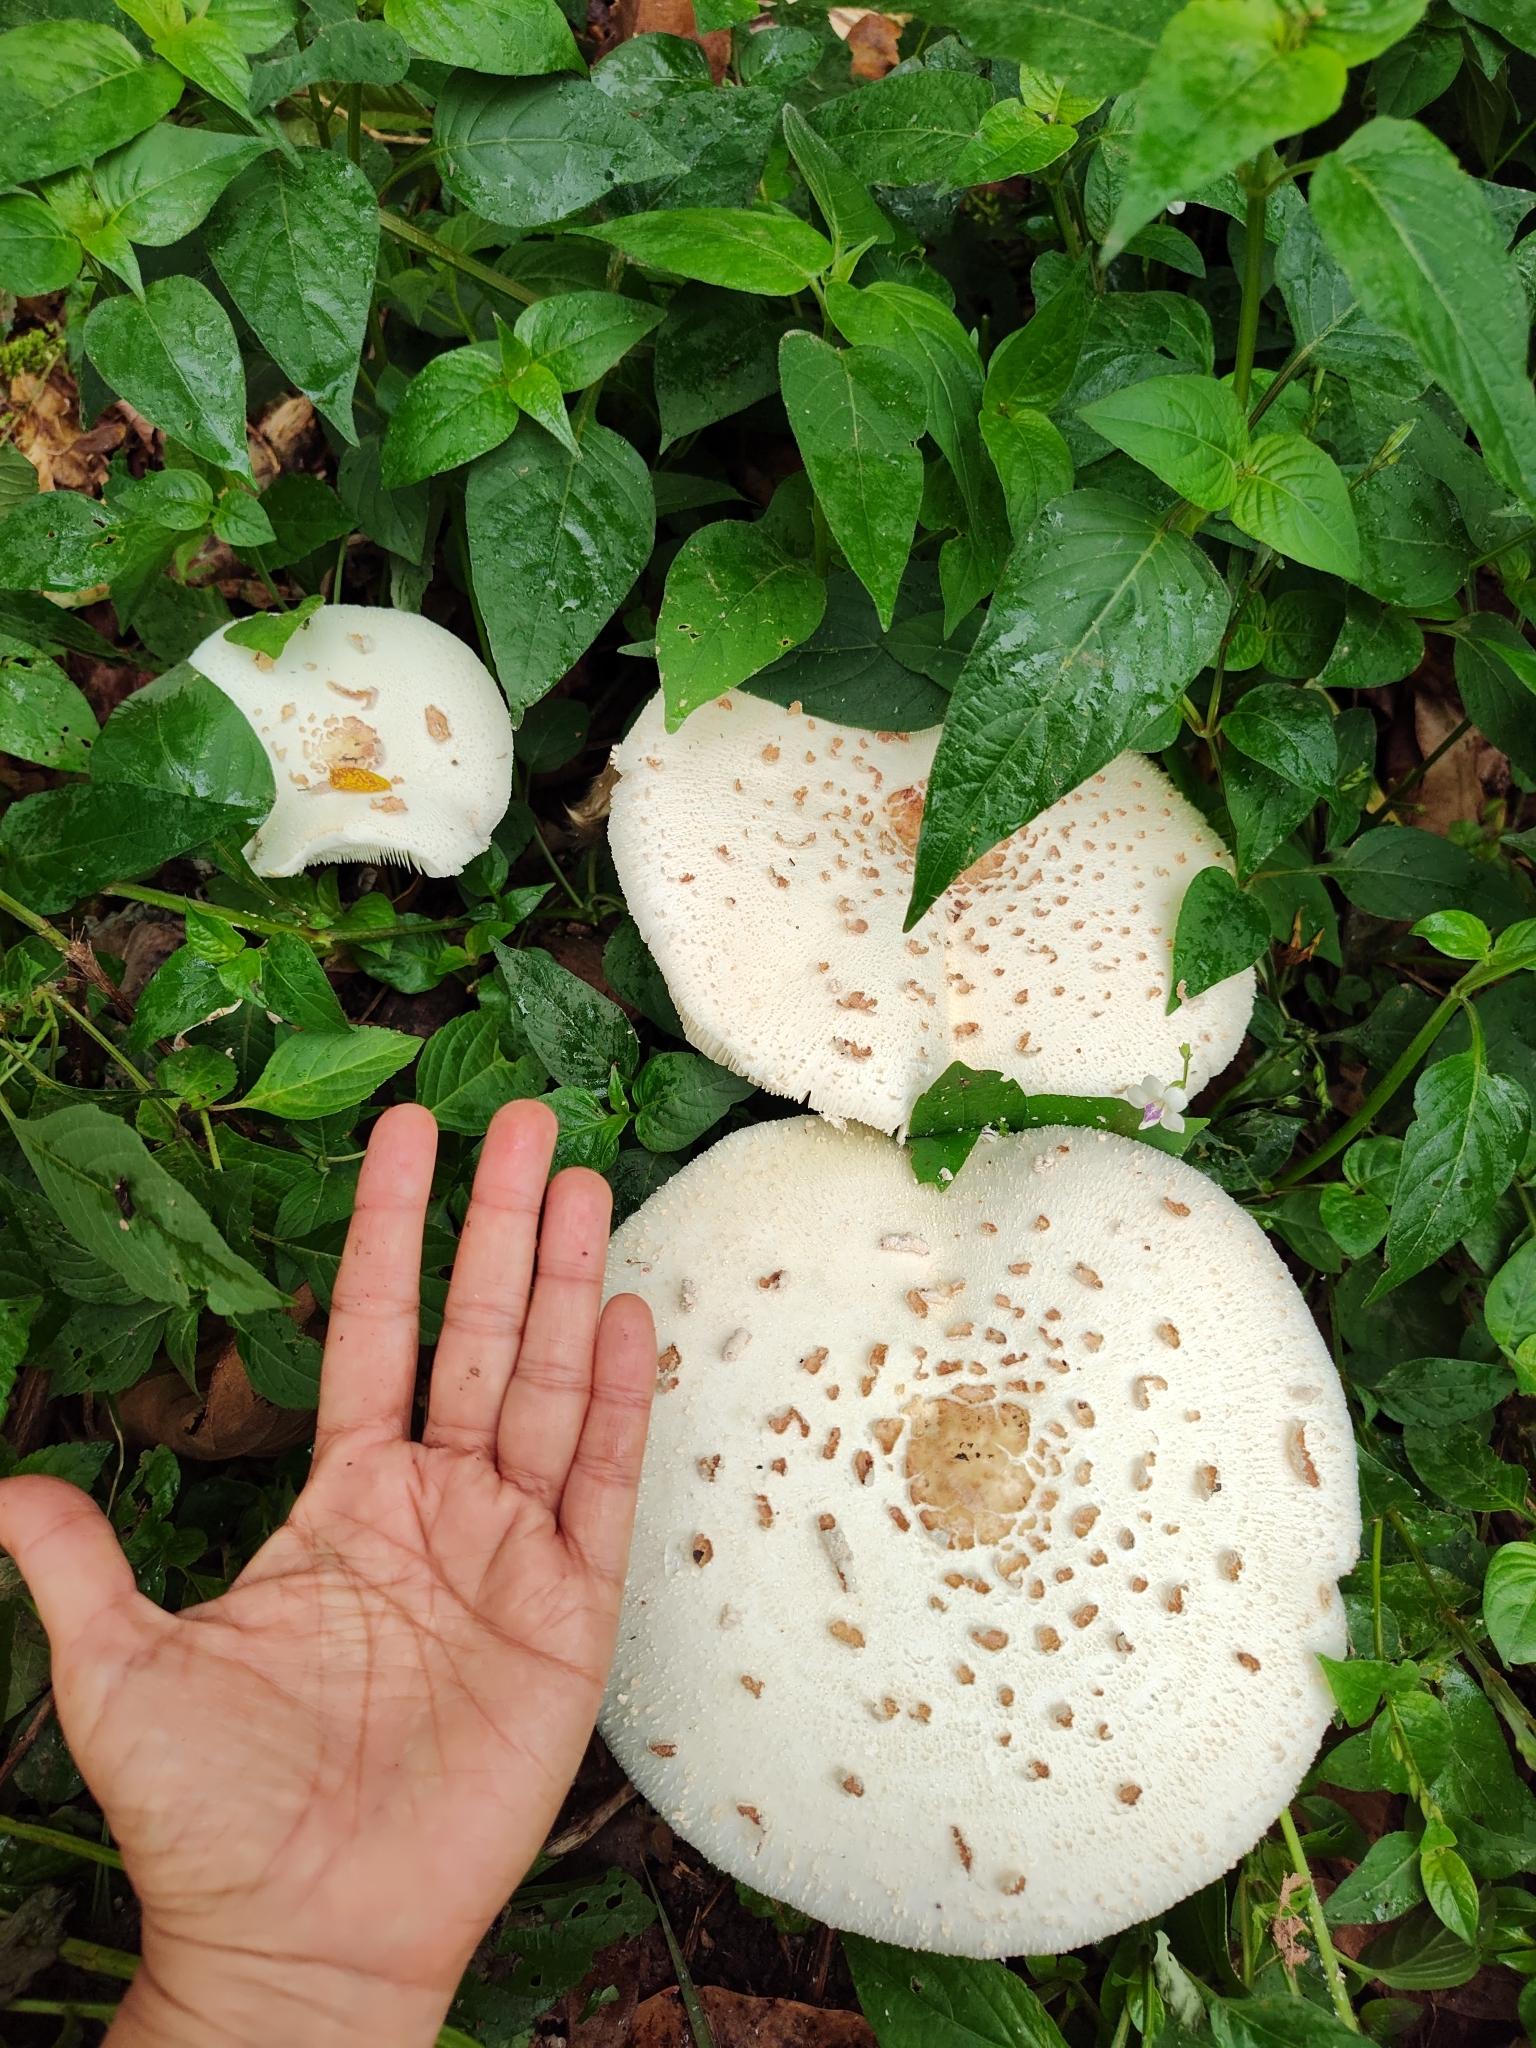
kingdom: Fungi
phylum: Basidiomycota
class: Agaricomycetes
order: Agaricales
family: Agaricaceae
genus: Chlorophyllum
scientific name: Chlorophyllum molybdites
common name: False parasol
